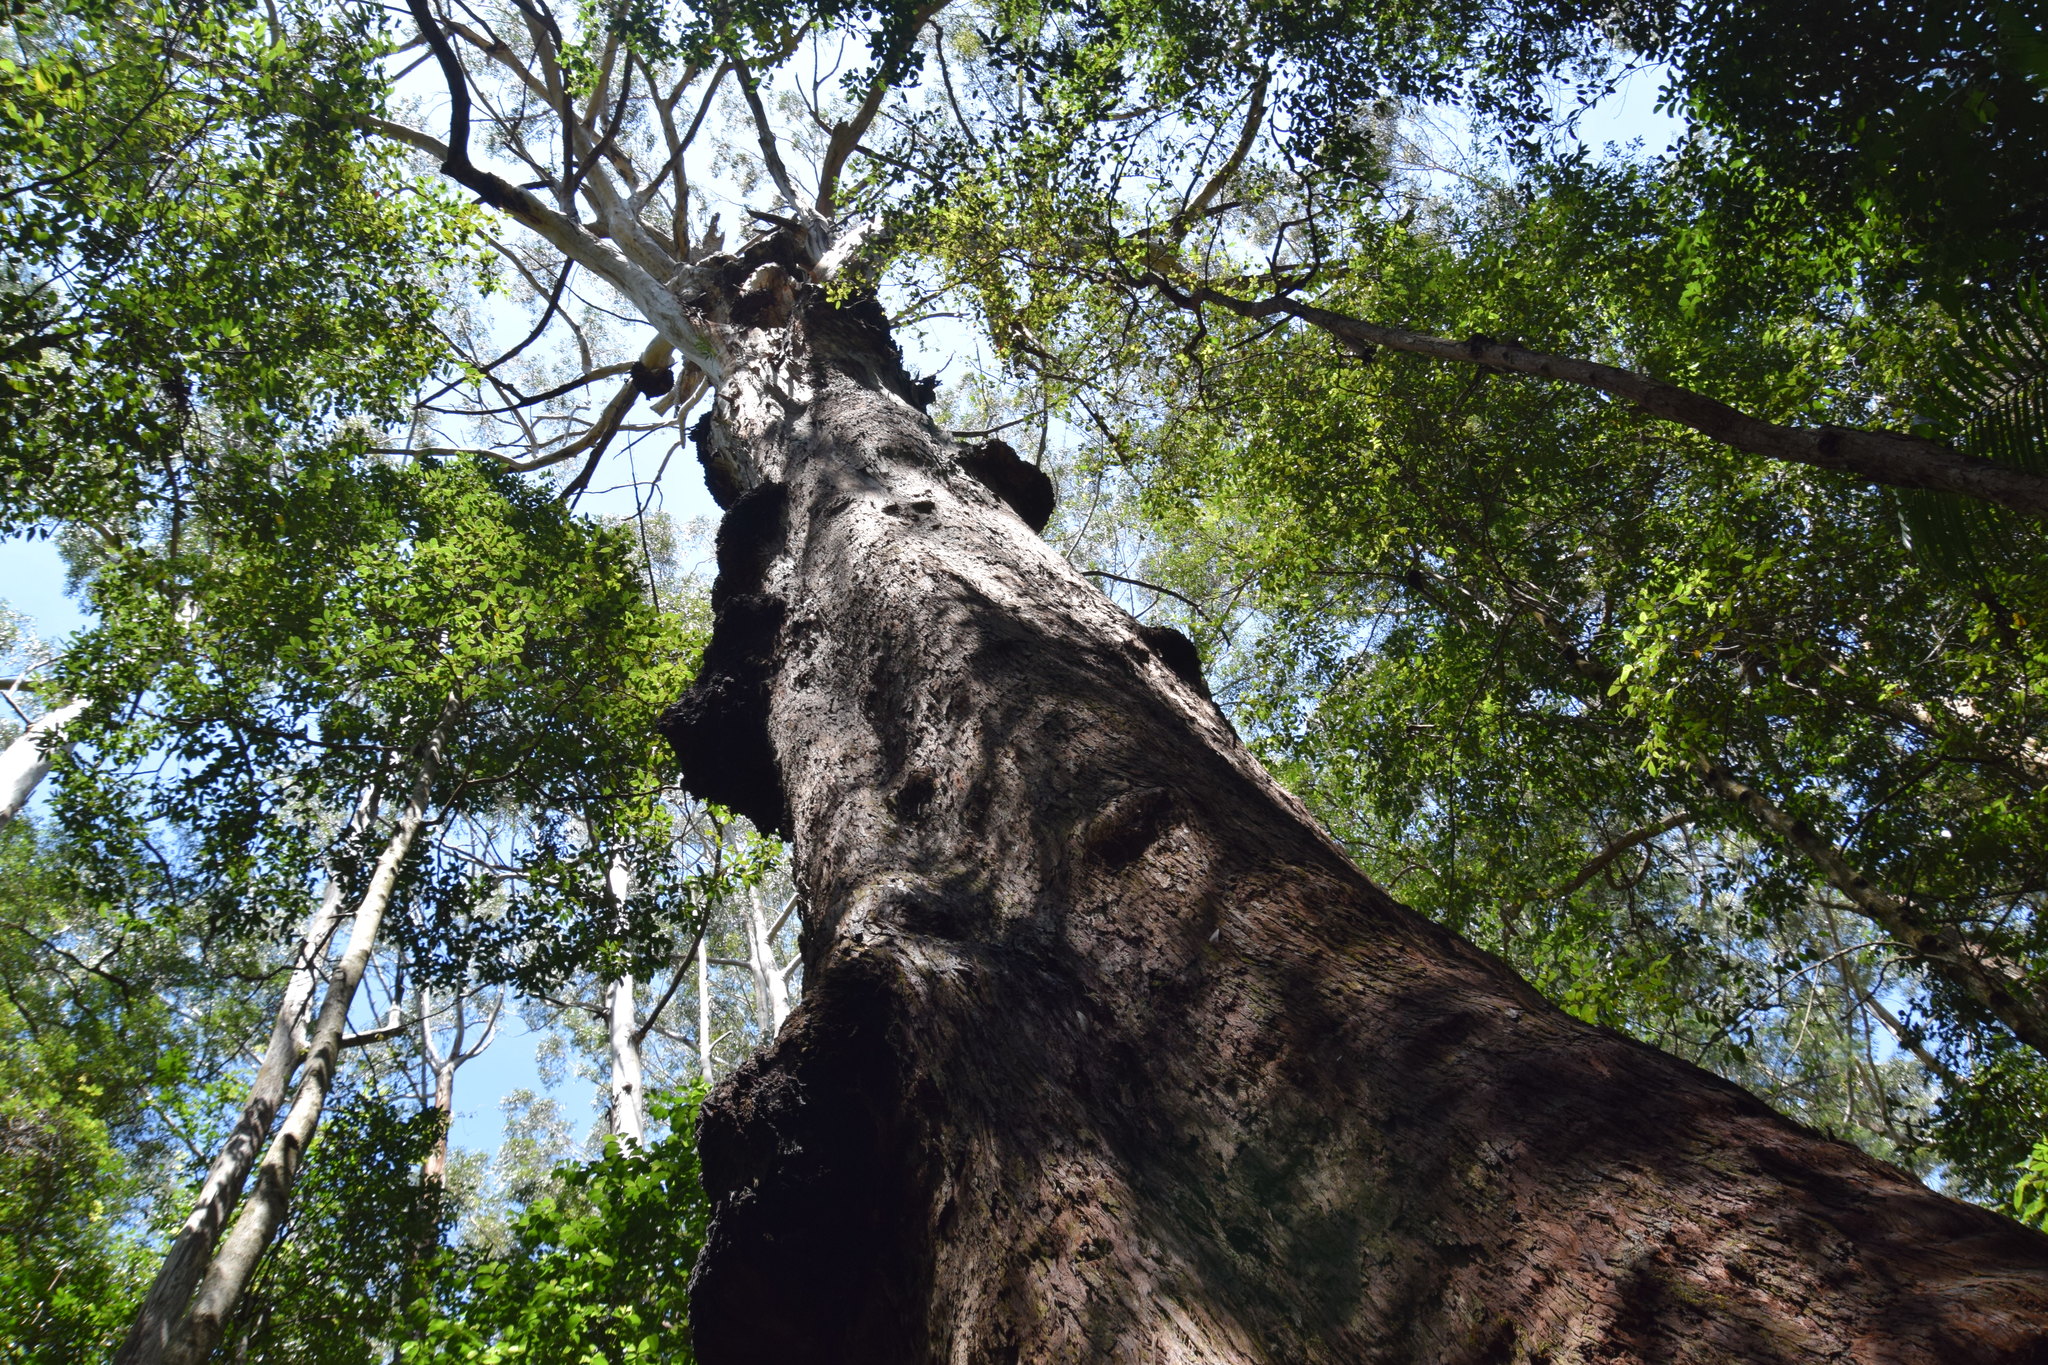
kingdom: Plantae
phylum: Tracheophyta
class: Magnoliopsida
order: Myrtales
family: Myrtaceae
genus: Eucalyptus
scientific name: Eucalyptus pilularis
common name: Blackbutt
